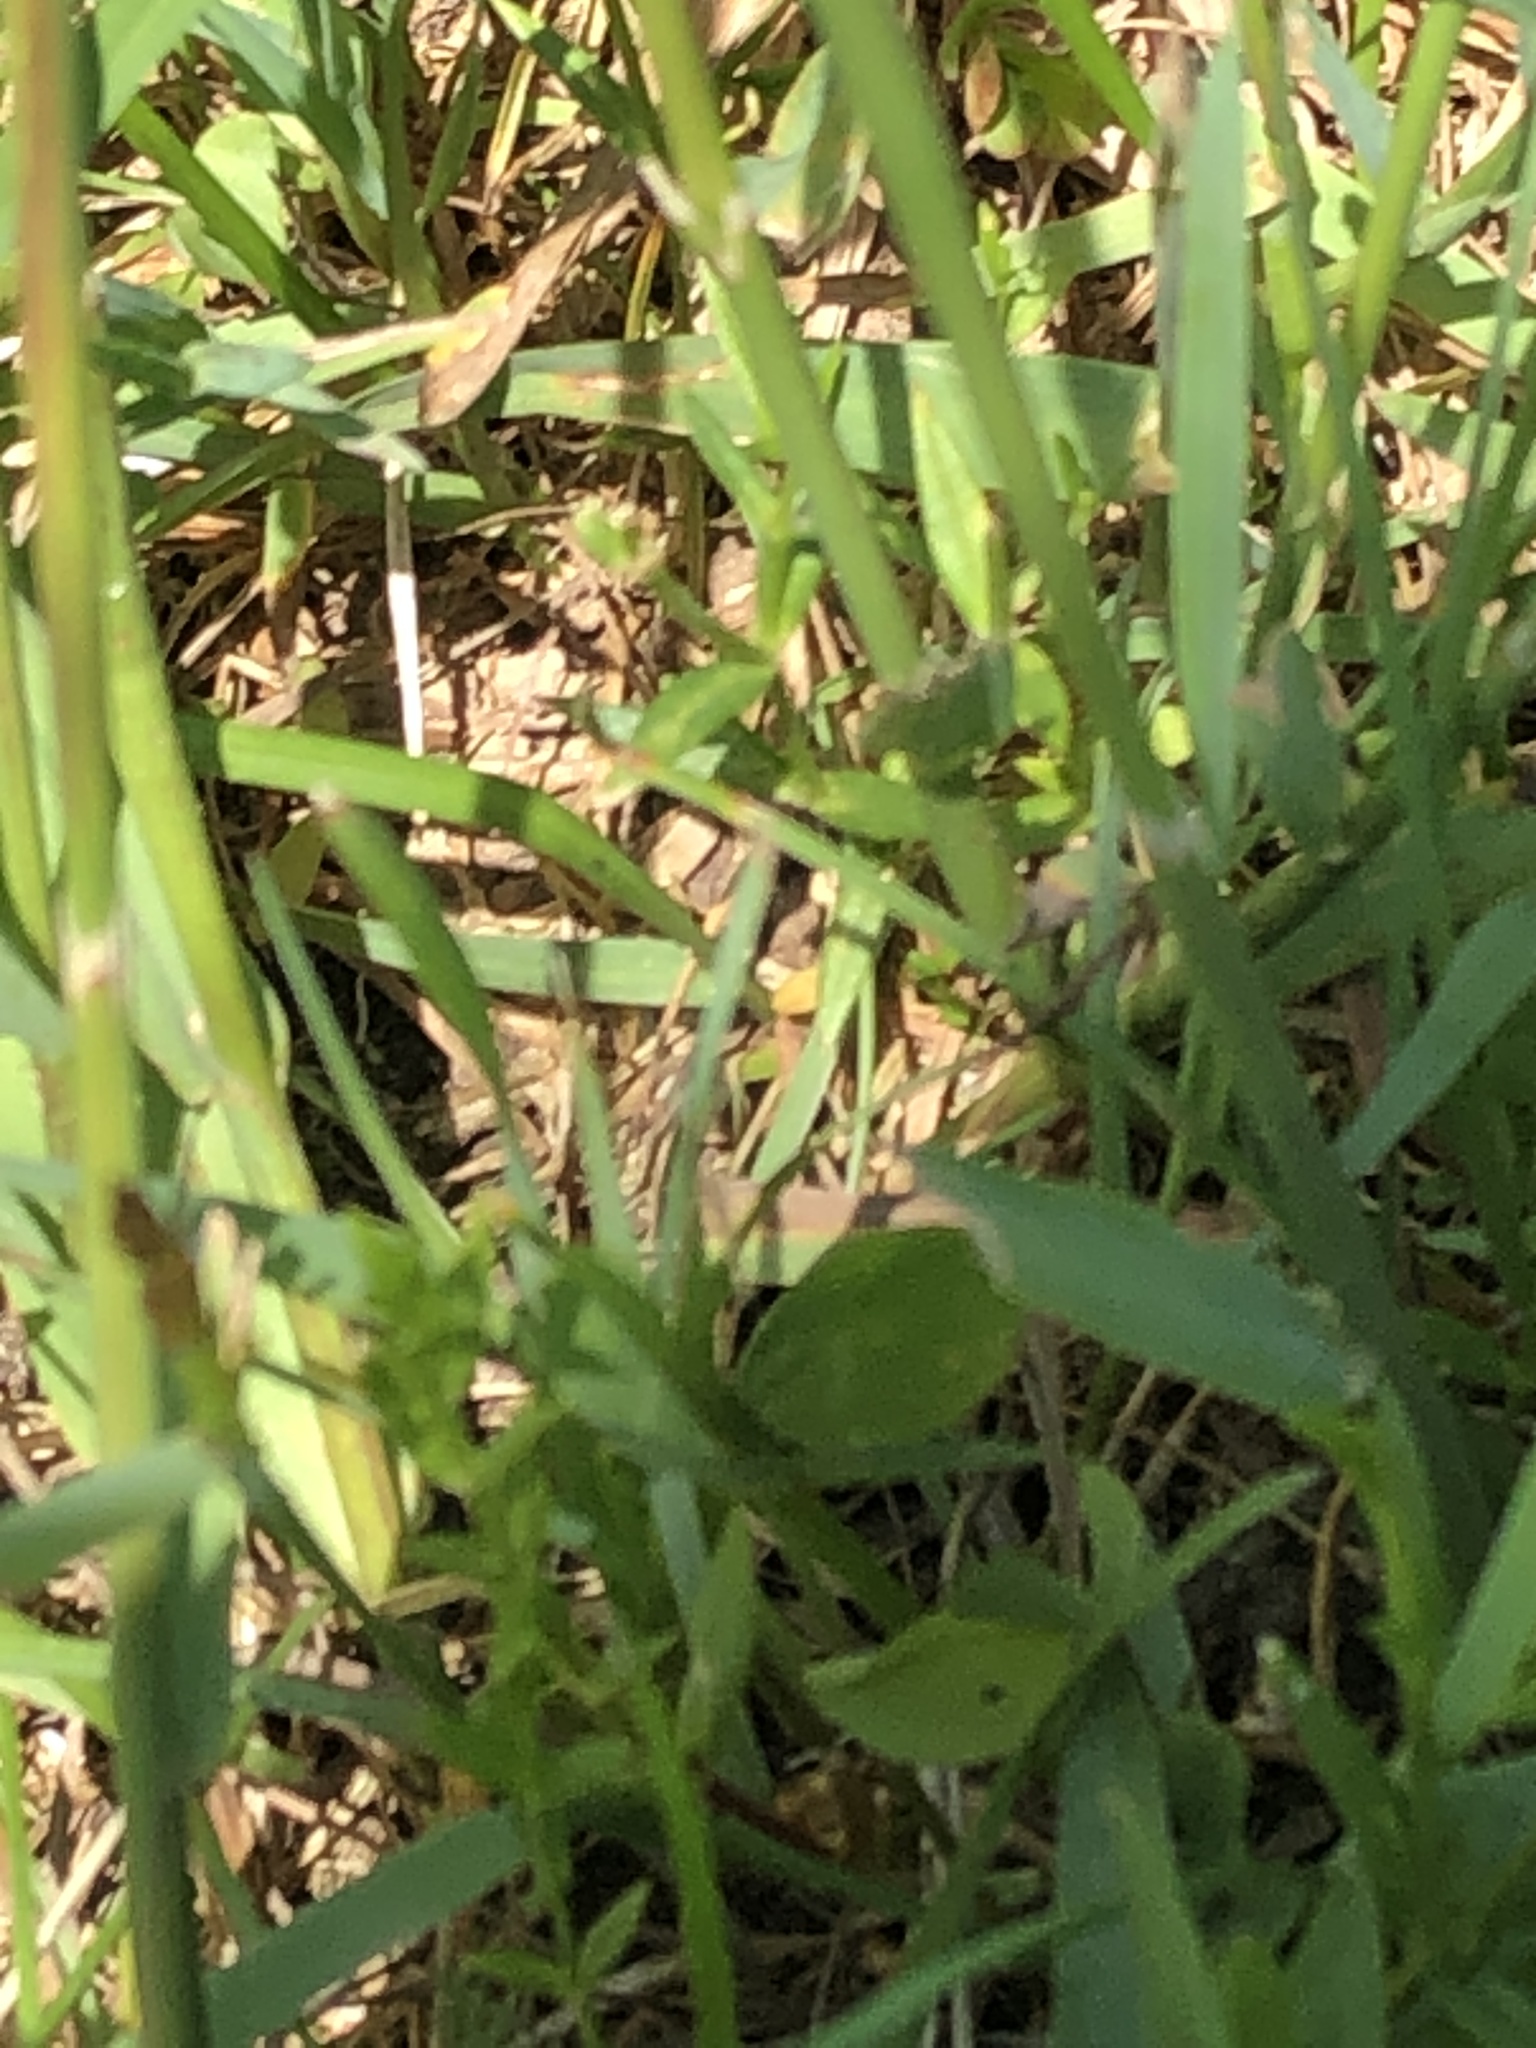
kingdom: Plantae
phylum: Tracheophyta
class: Liliopsida
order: Poales
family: Poaceae
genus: Poa
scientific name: Poa pratensis
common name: Kentucky bluegrass
